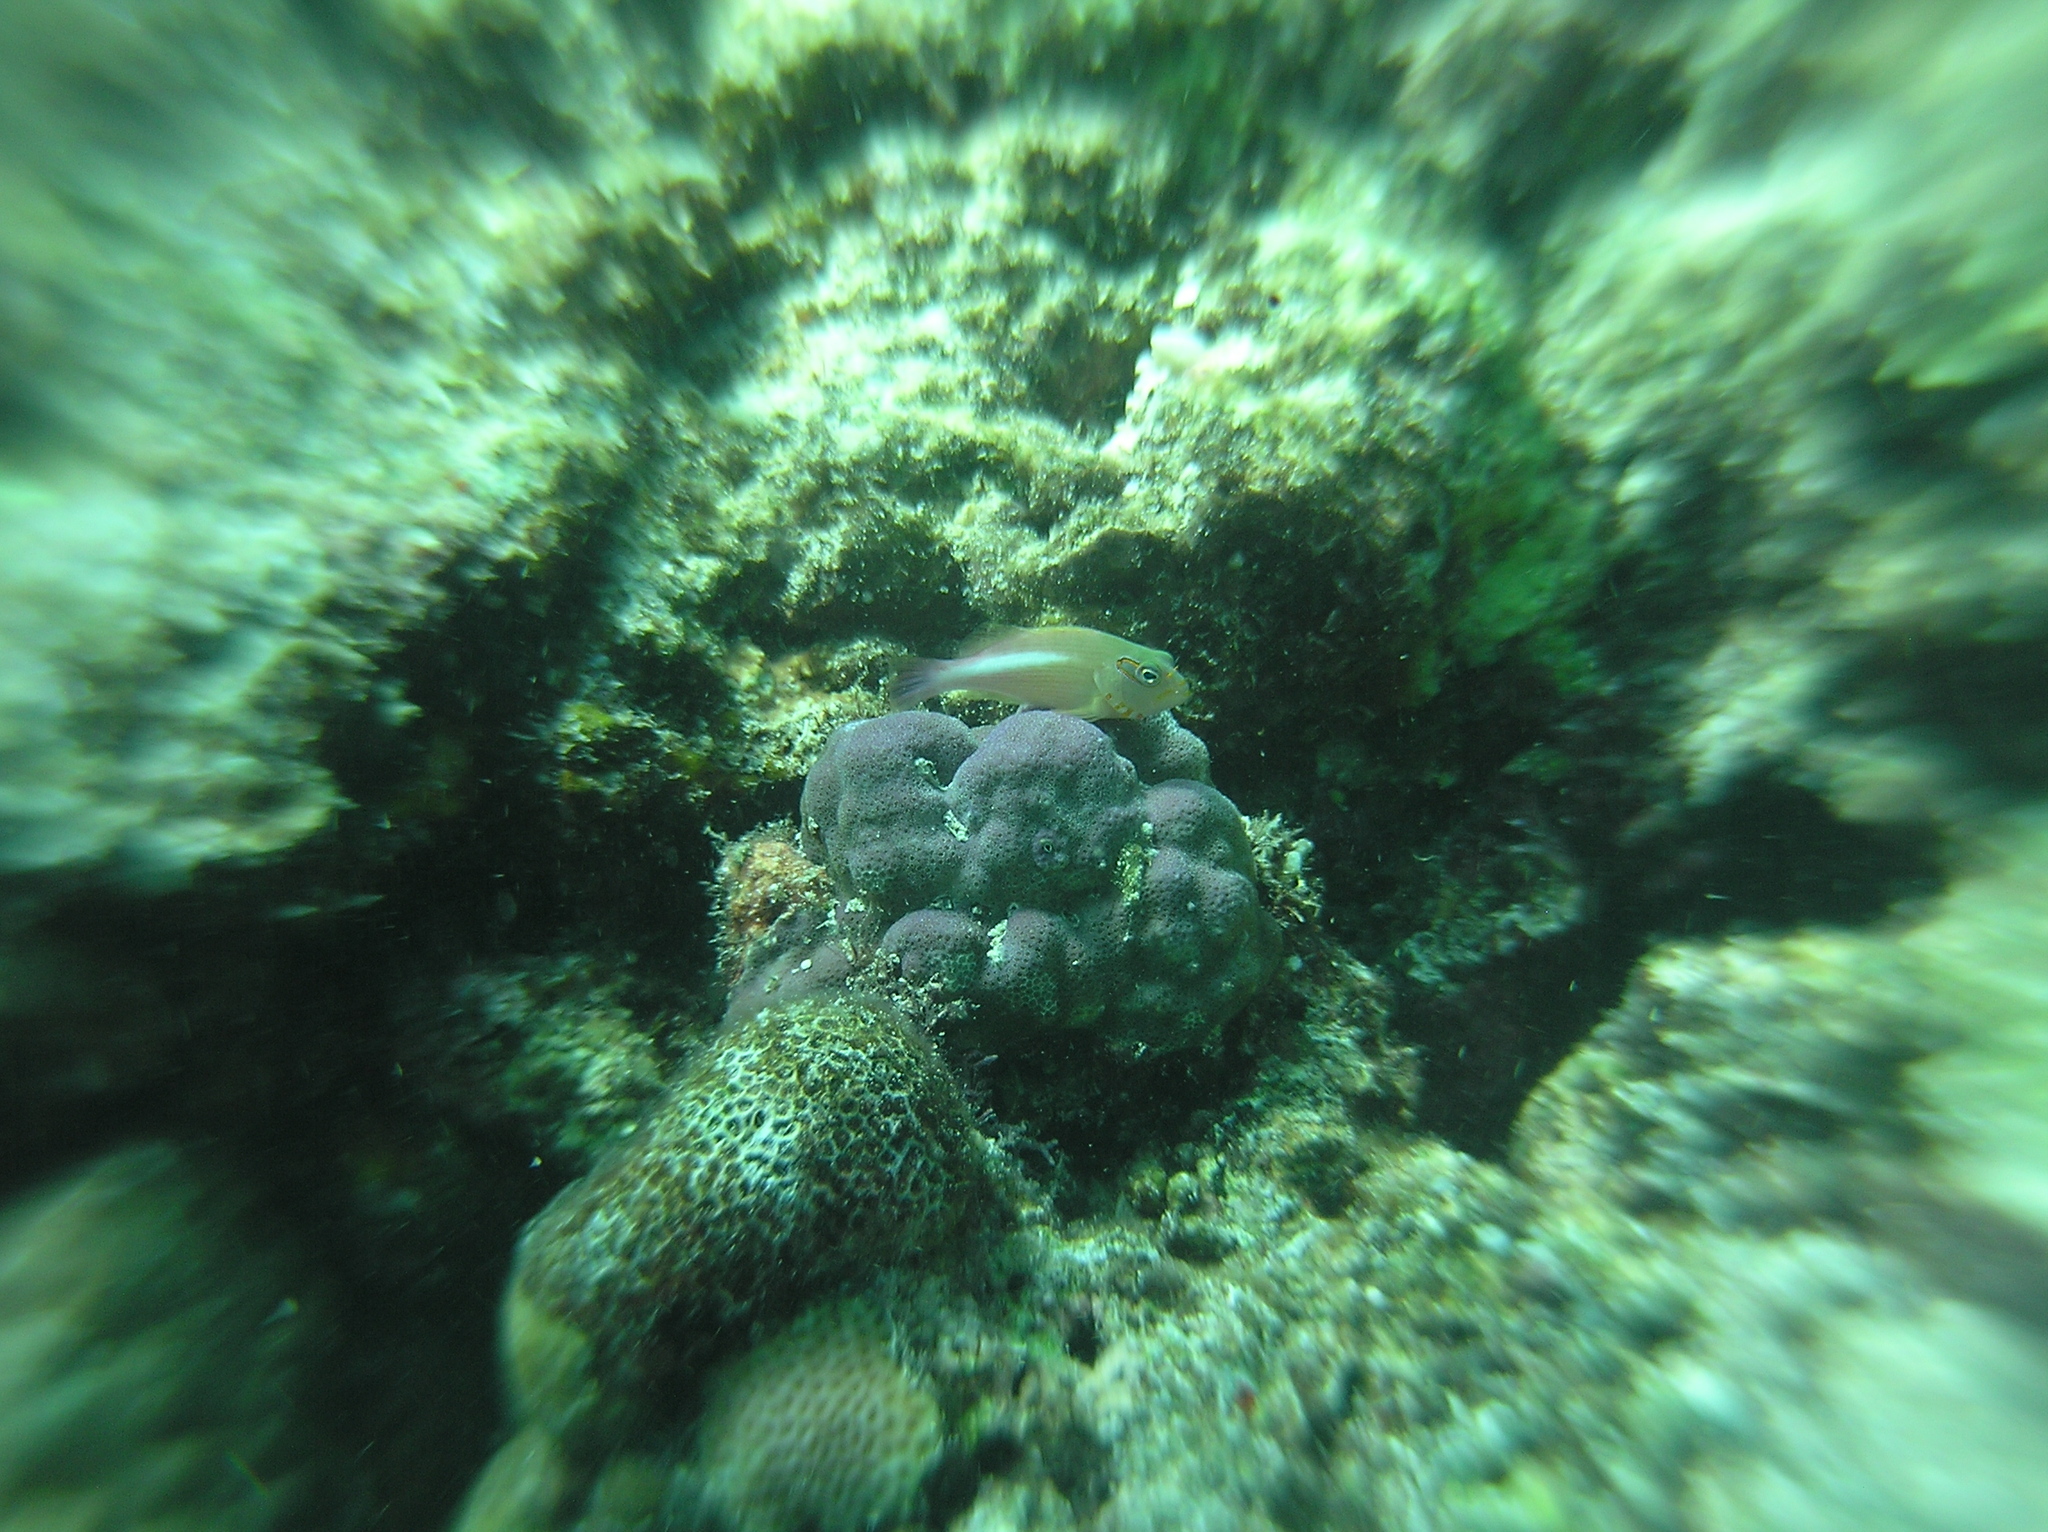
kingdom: Animalia
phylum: Chordata
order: Perciformes
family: Cirrhitidae
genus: Paracirrhites
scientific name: Paracirrhites arcatus
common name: Arc-eye hawkfish
